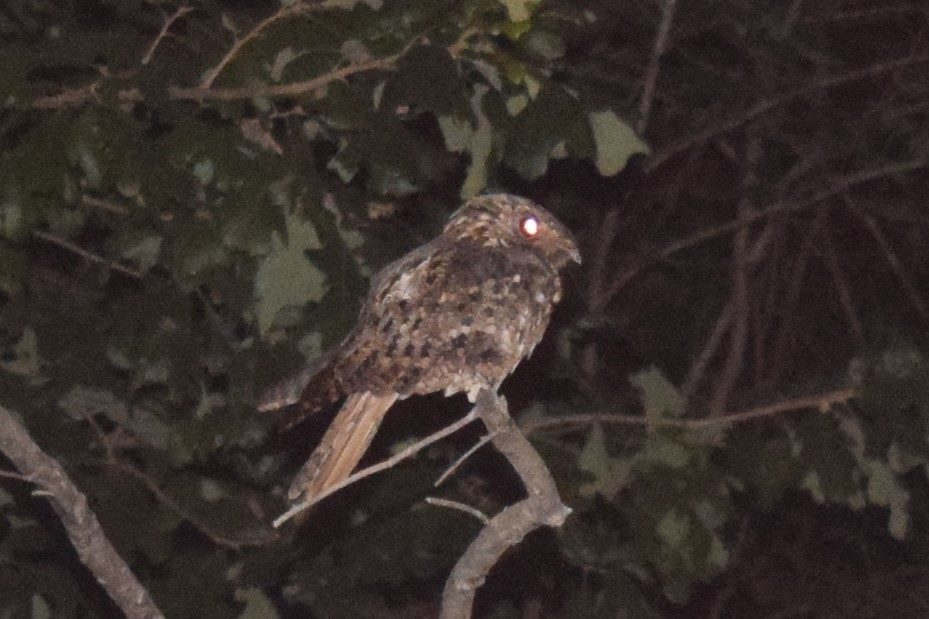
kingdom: Animalia
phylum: Chordata
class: Aves
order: Caprimulgiformes
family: Caprimulgidae
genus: Antrostomus
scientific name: Antrostomus carolinensis
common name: Chuck-will's-widow
